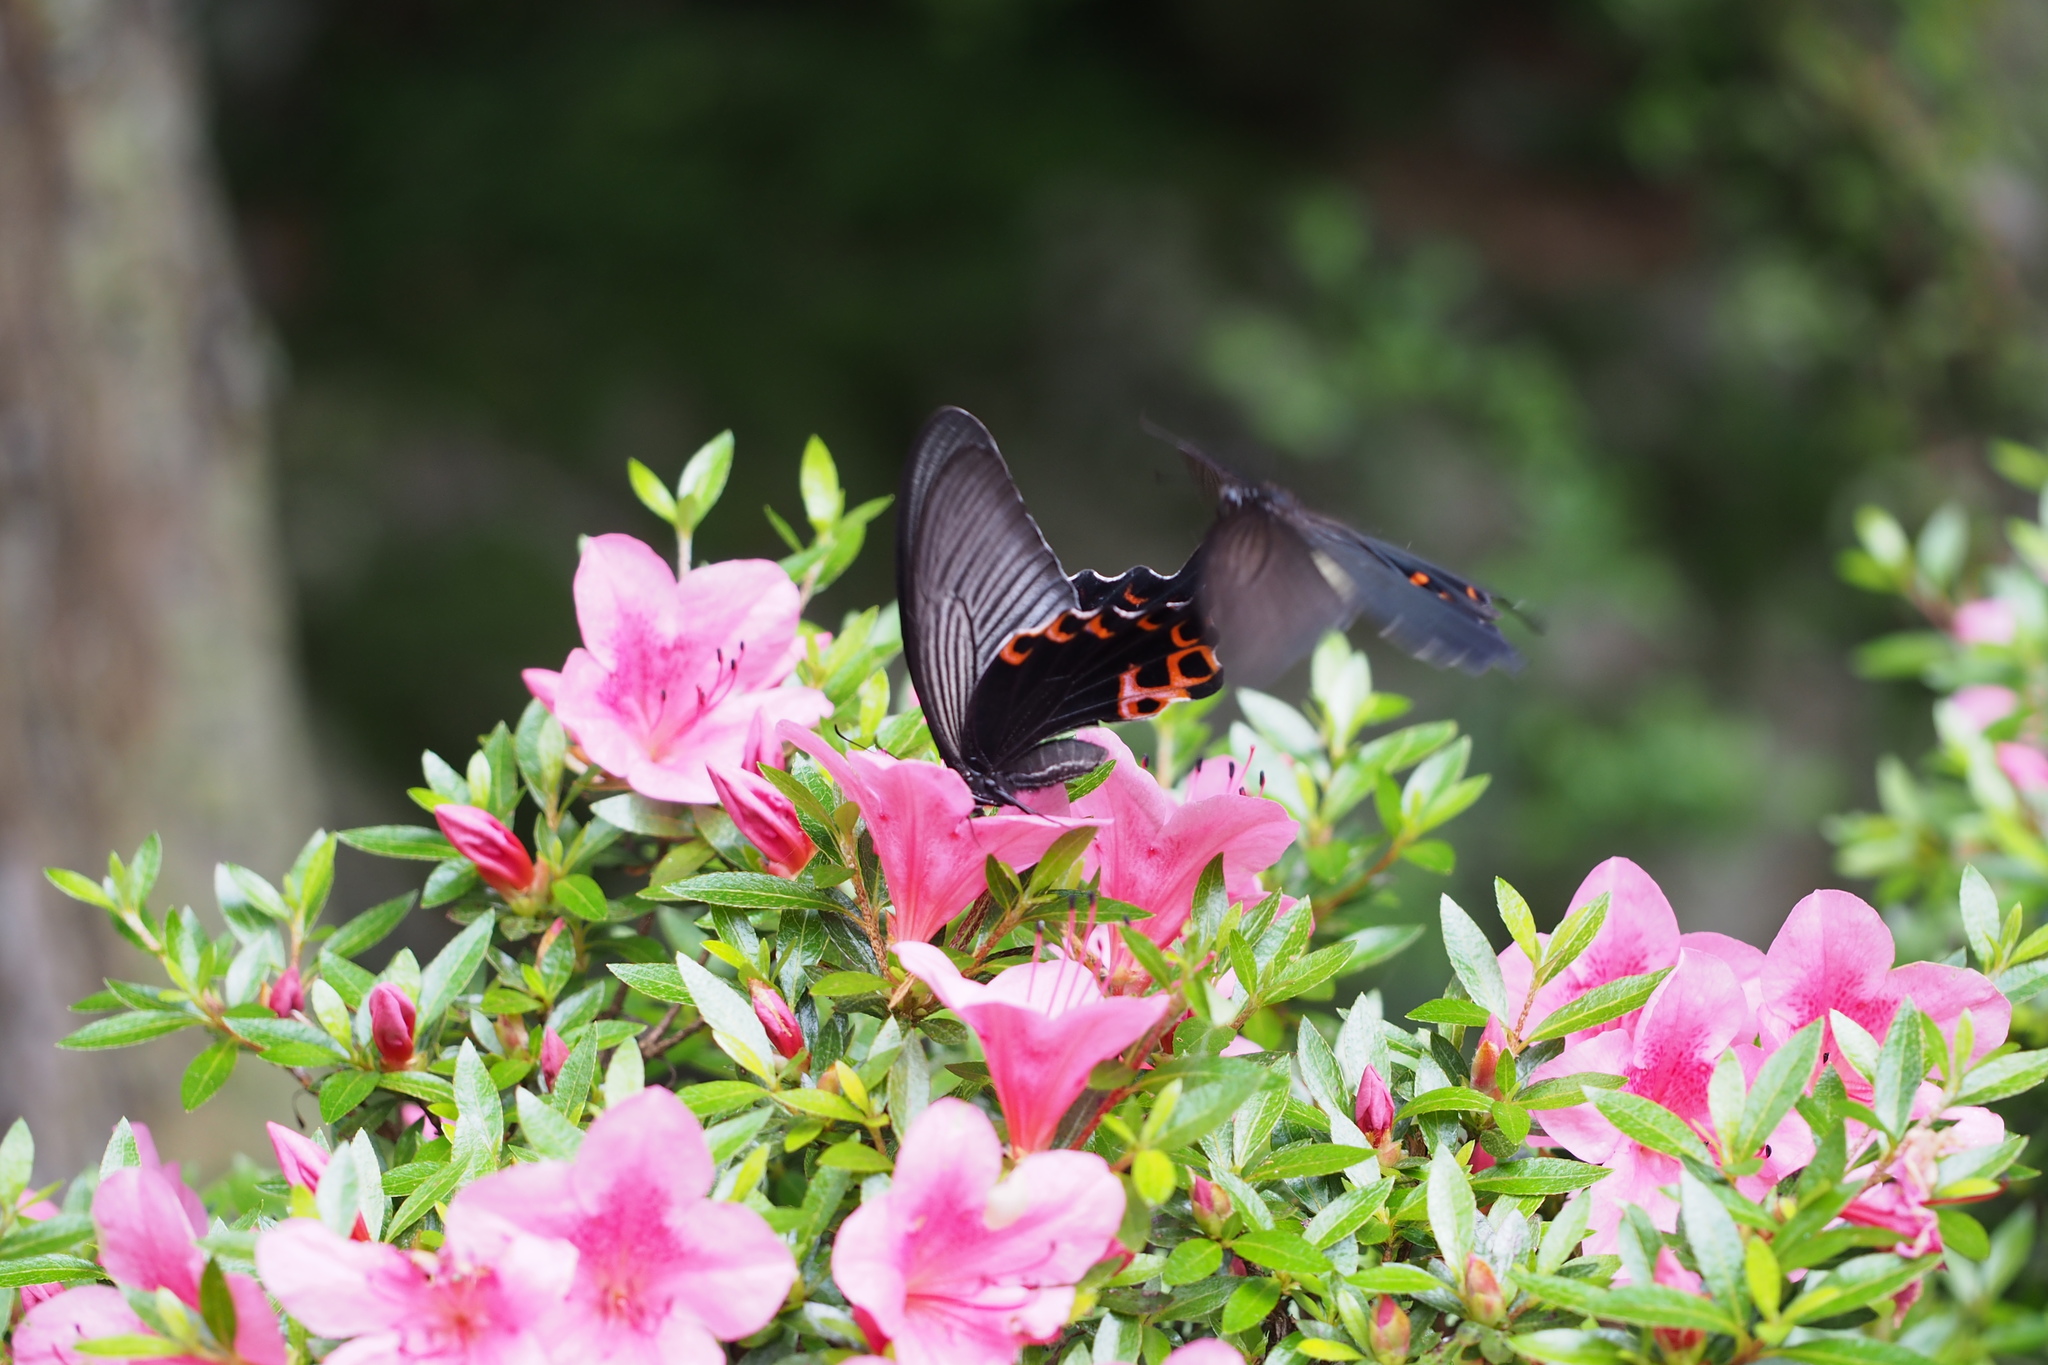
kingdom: Animalia
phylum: Arthropoda
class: Insecta
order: Lepidoptera
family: Papilionidae
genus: Papilio
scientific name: Papilio demetrius
